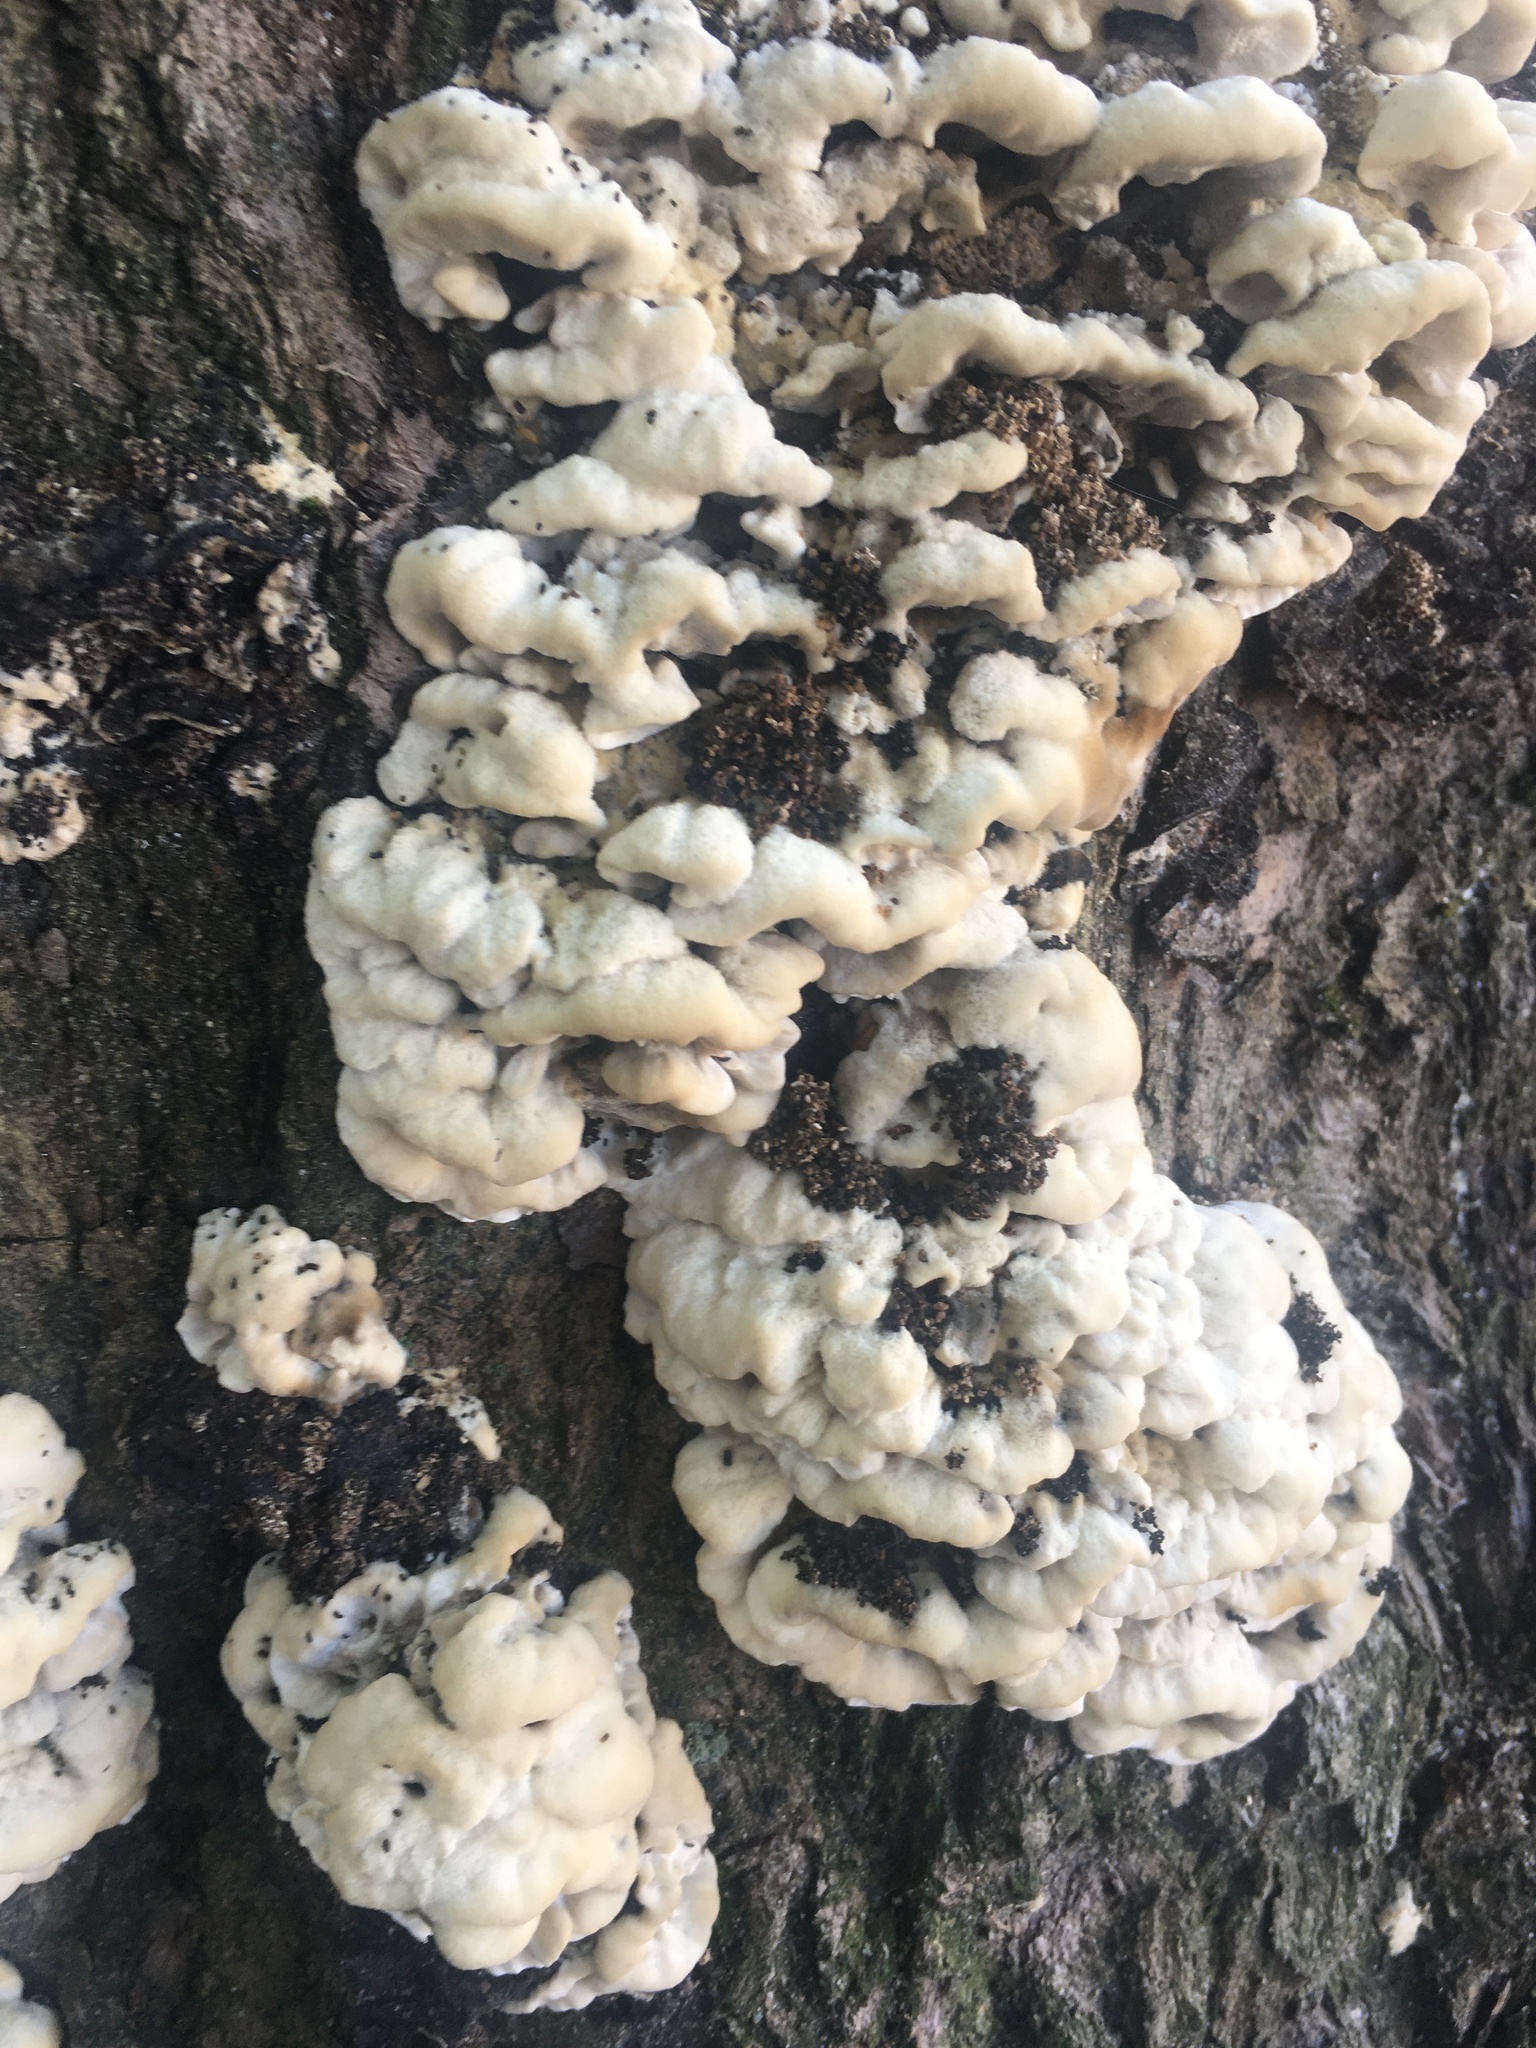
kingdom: Fungi
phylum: Basidiomycota
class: Agaricomycetes
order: Polyporales
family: Phanerochaetaceae
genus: Bjerkandera
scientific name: Bjerkandera adusta
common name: Smoky bracket
